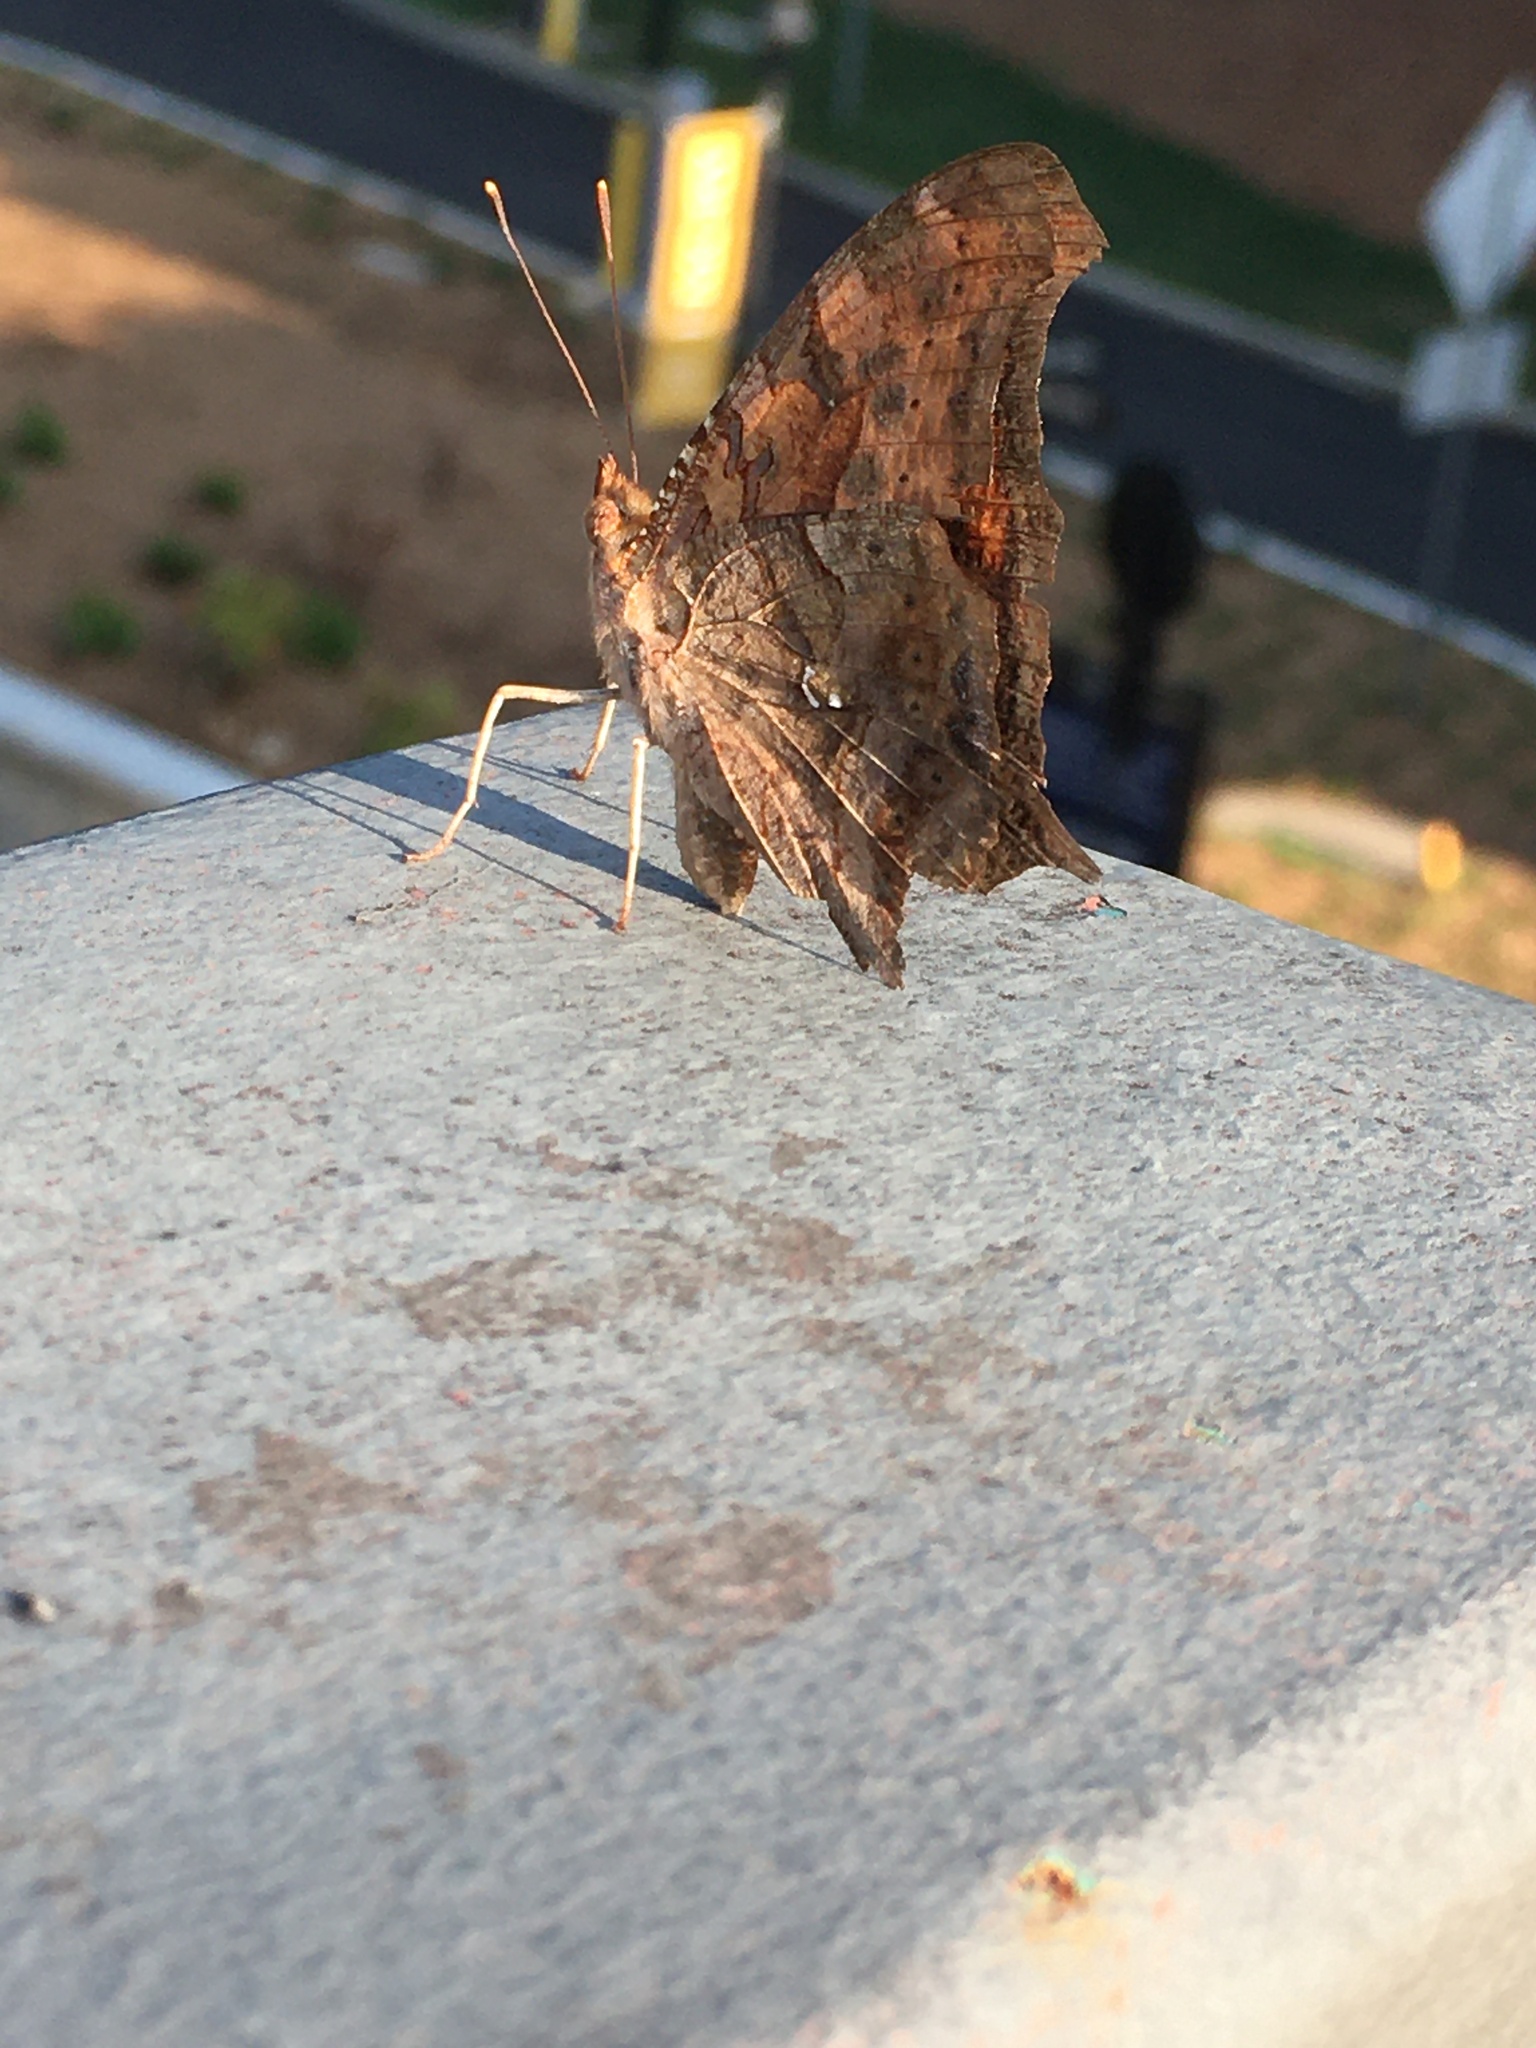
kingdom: Animalia
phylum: Arthropoda
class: Insecta
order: Lepidoptera
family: Nymphalidae
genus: Polygonia
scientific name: Polygonia interrogationis
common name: Question mark
